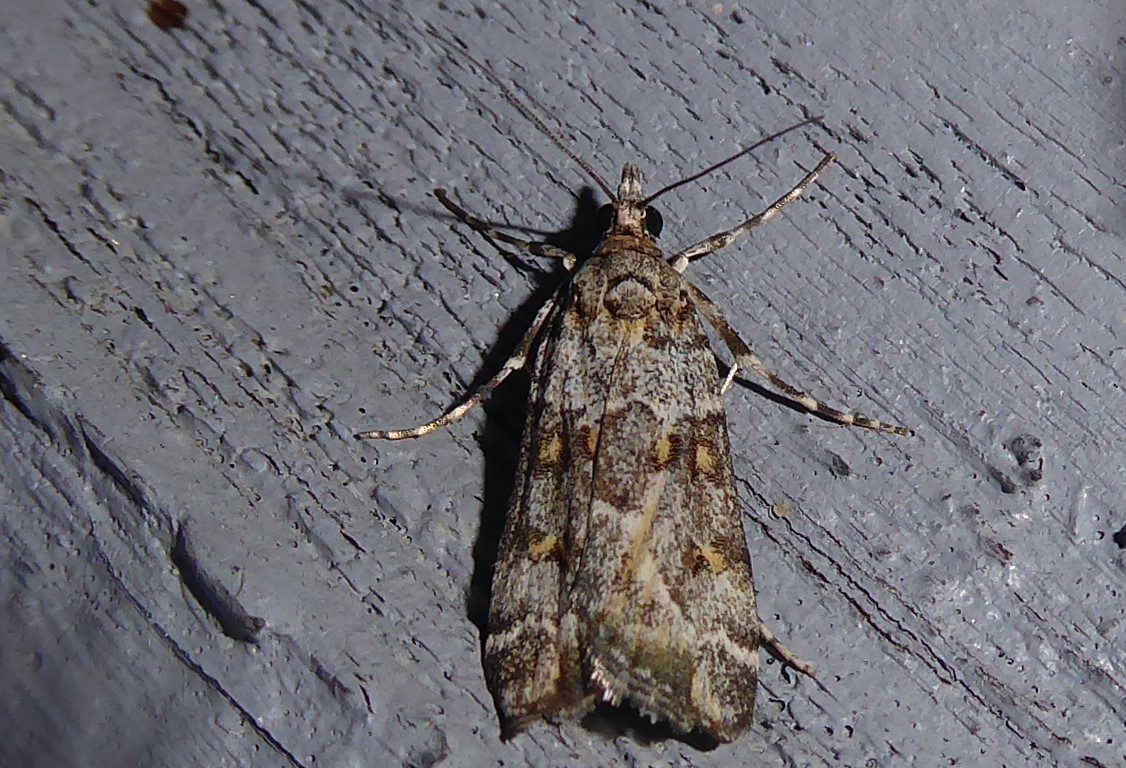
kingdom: Animalia
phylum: Arthropoda
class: Insecta
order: Lepidoptera
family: Crambidae
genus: Eudonia
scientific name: Eudonia diphtheralis
